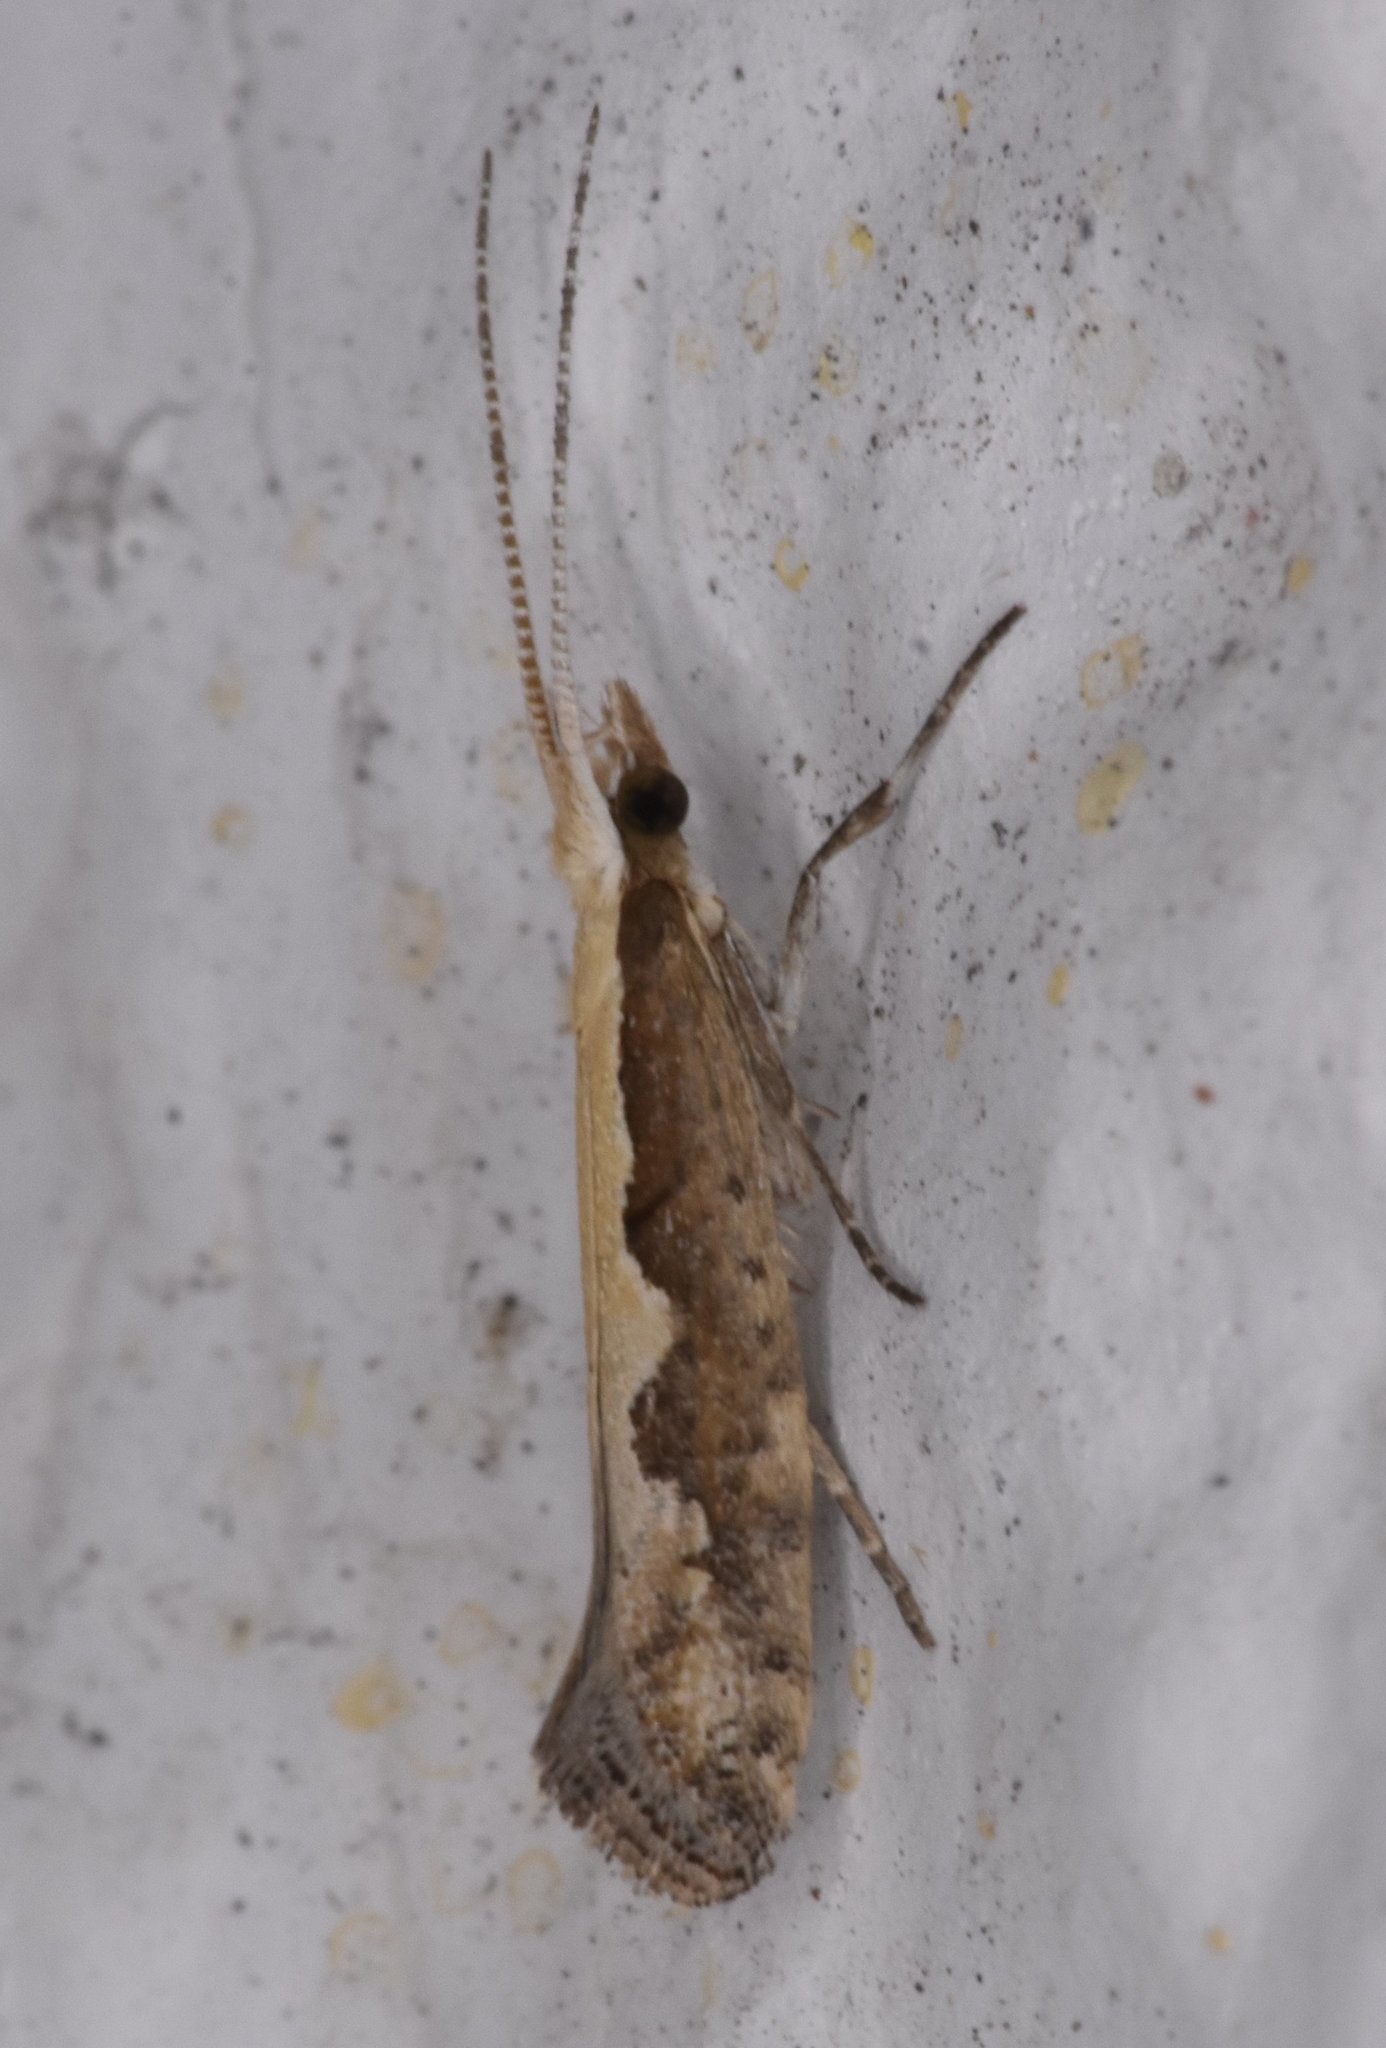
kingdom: Animalia
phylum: Arthropoda
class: Insecta
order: Lepidoptera
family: Plutellidae
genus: Plutella
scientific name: Plutella xylostella
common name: Diamond-back moth
